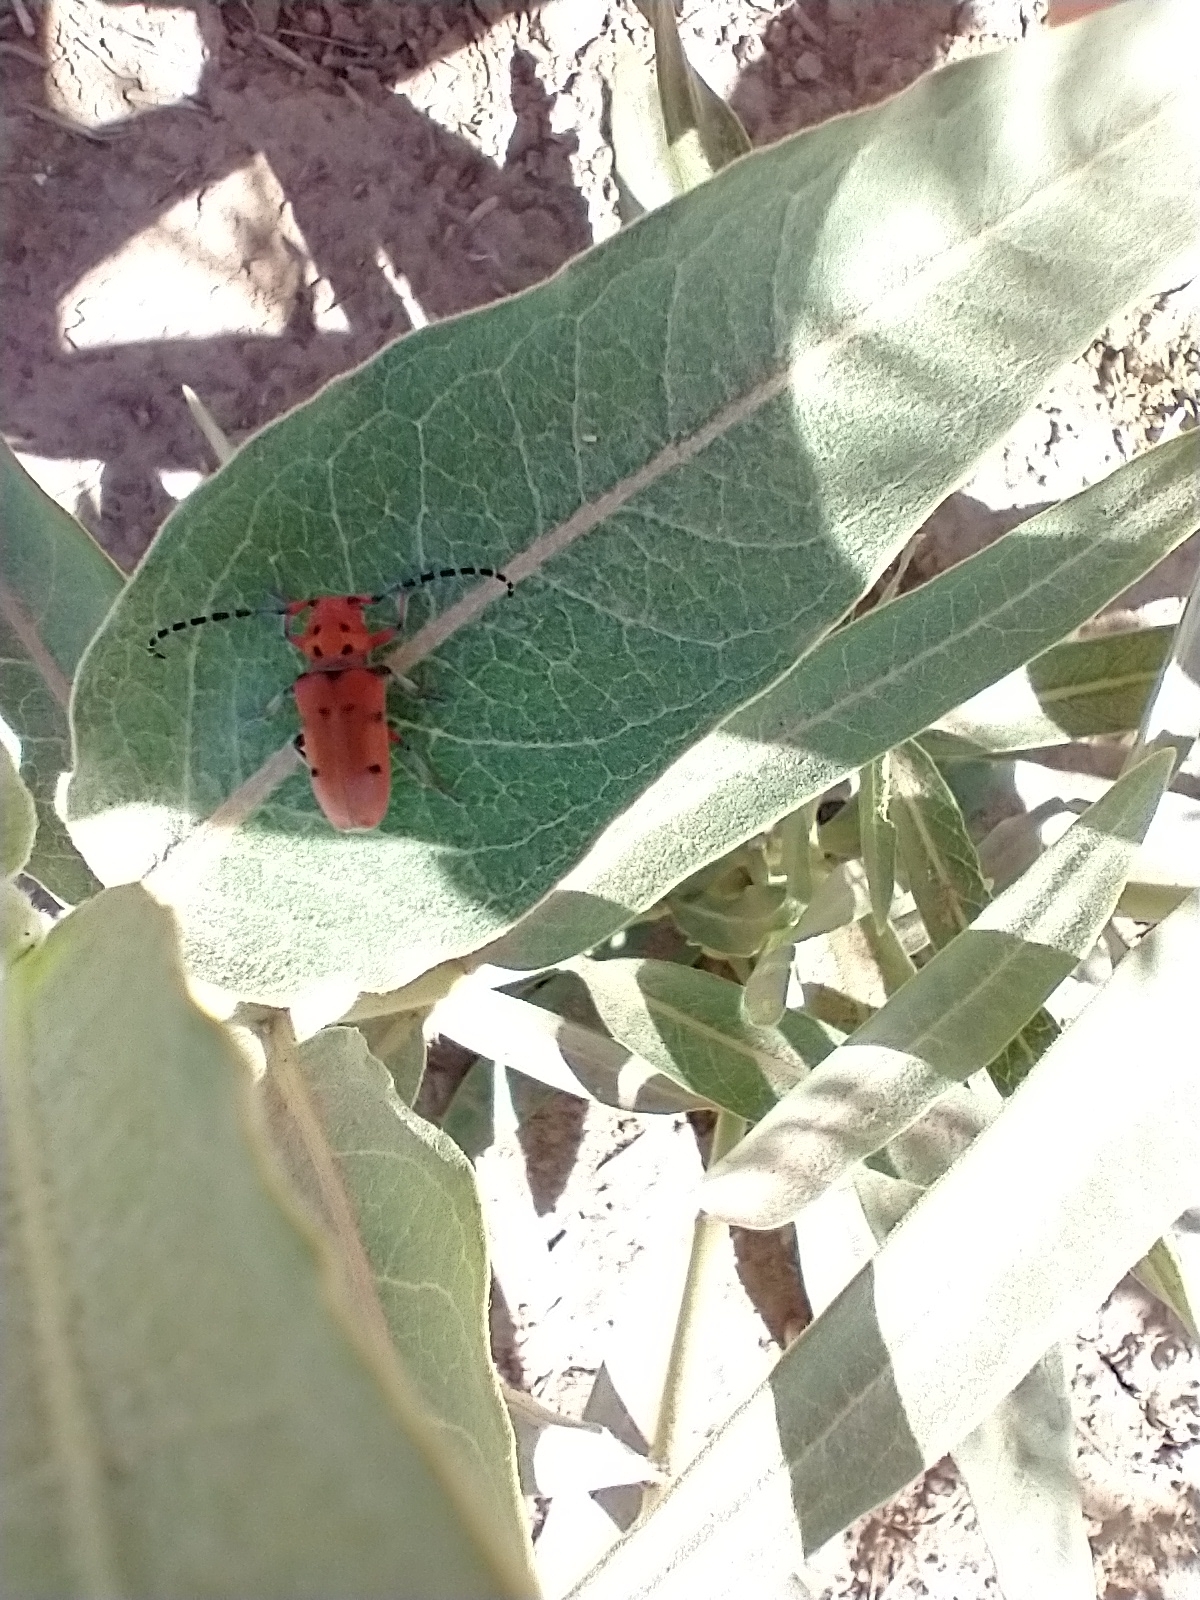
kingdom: Animalia
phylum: Arthropoda
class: Insecta
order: Coleoptera
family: Cerambycidae
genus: Tetraopes
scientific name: Tetraopes femoratus
